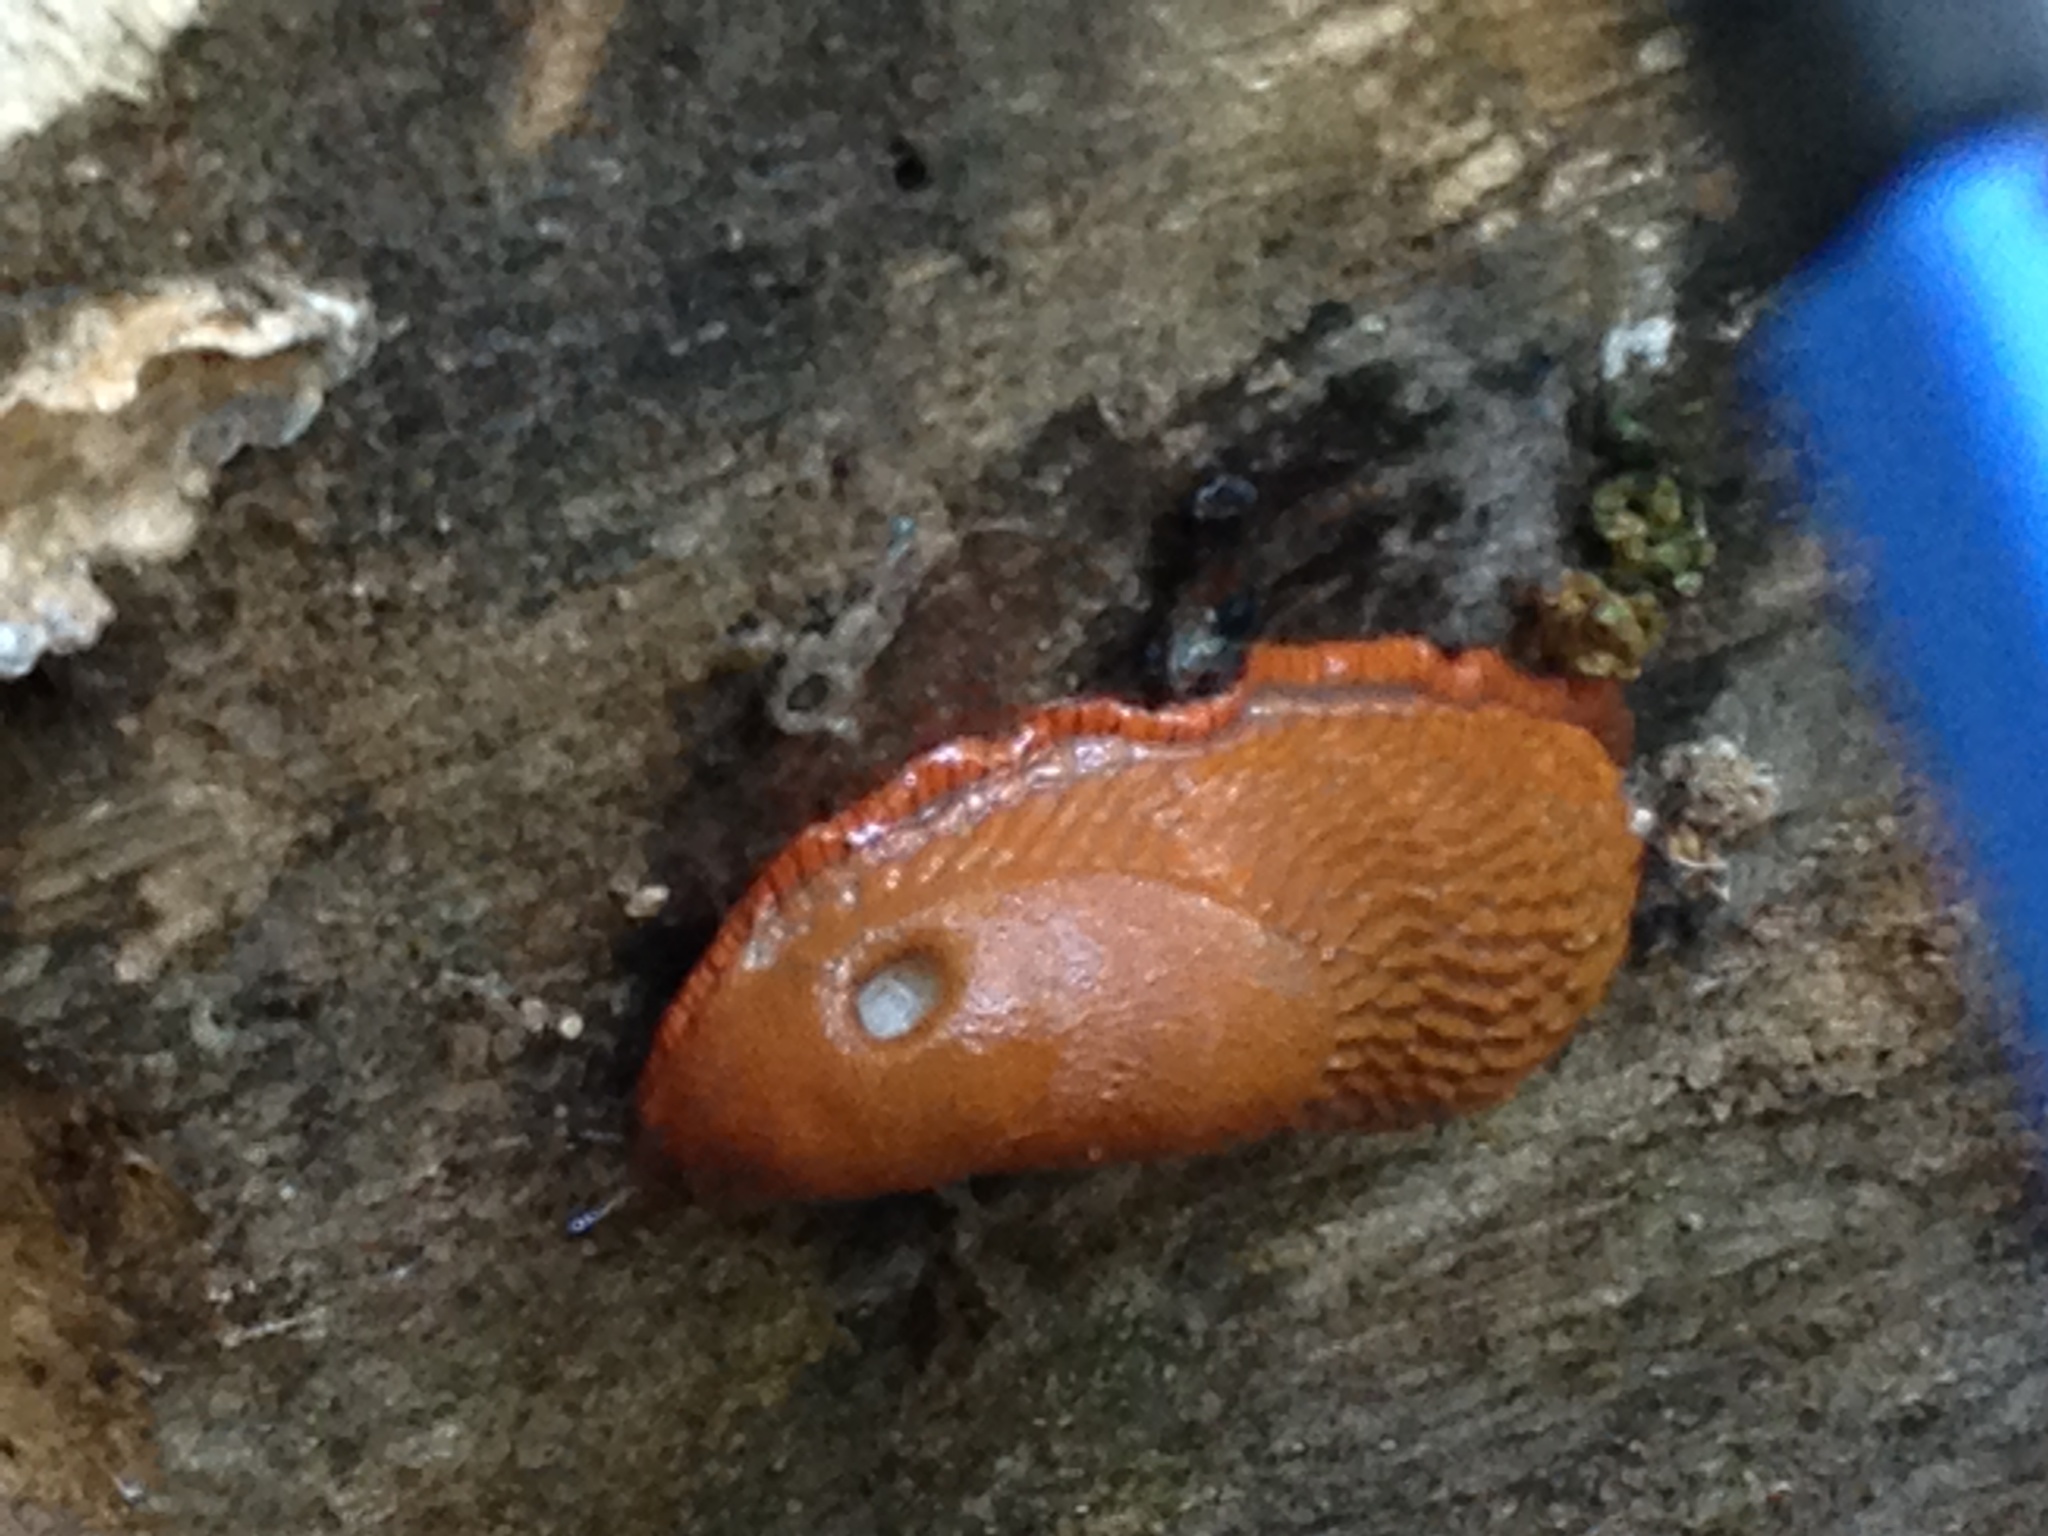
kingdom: Animalia
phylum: Mollusca
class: Gastropoda
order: Stylommatophora
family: Arionidae
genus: Arion
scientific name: Arion rufus
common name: Chocolate arion
